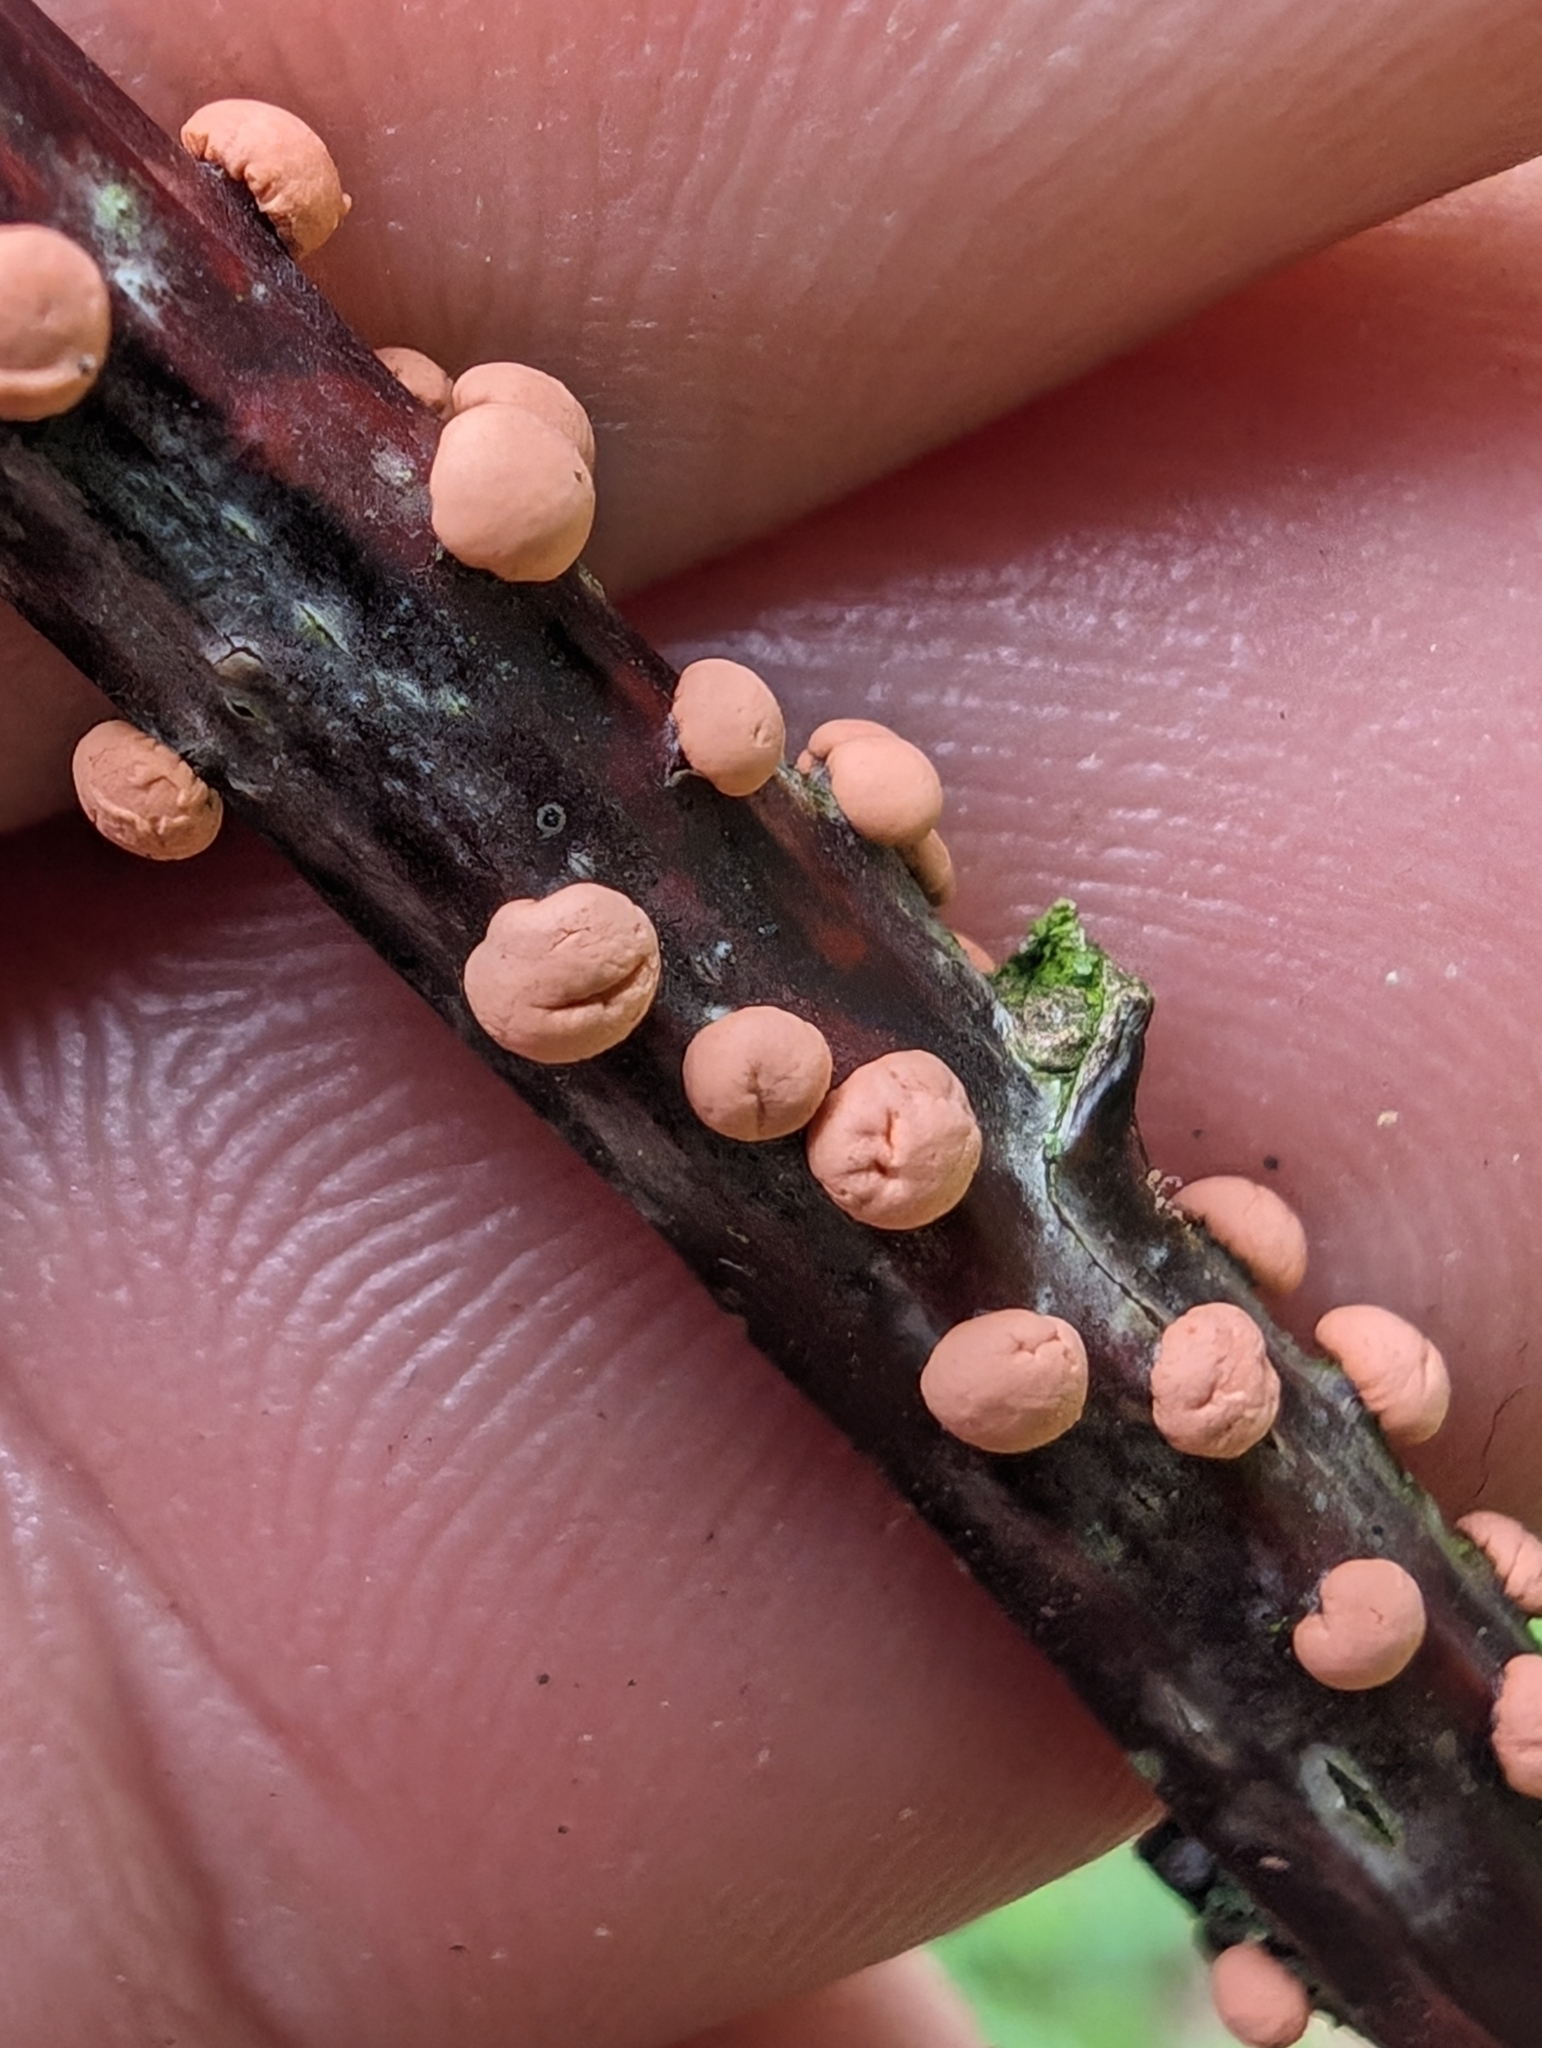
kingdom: Fungi
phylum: Ascomycota
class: Sordariomycetes
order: Hypocreales
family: Nectriaceae
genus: Nectria
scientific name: Nectria cinnabarina
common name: Coral spot
